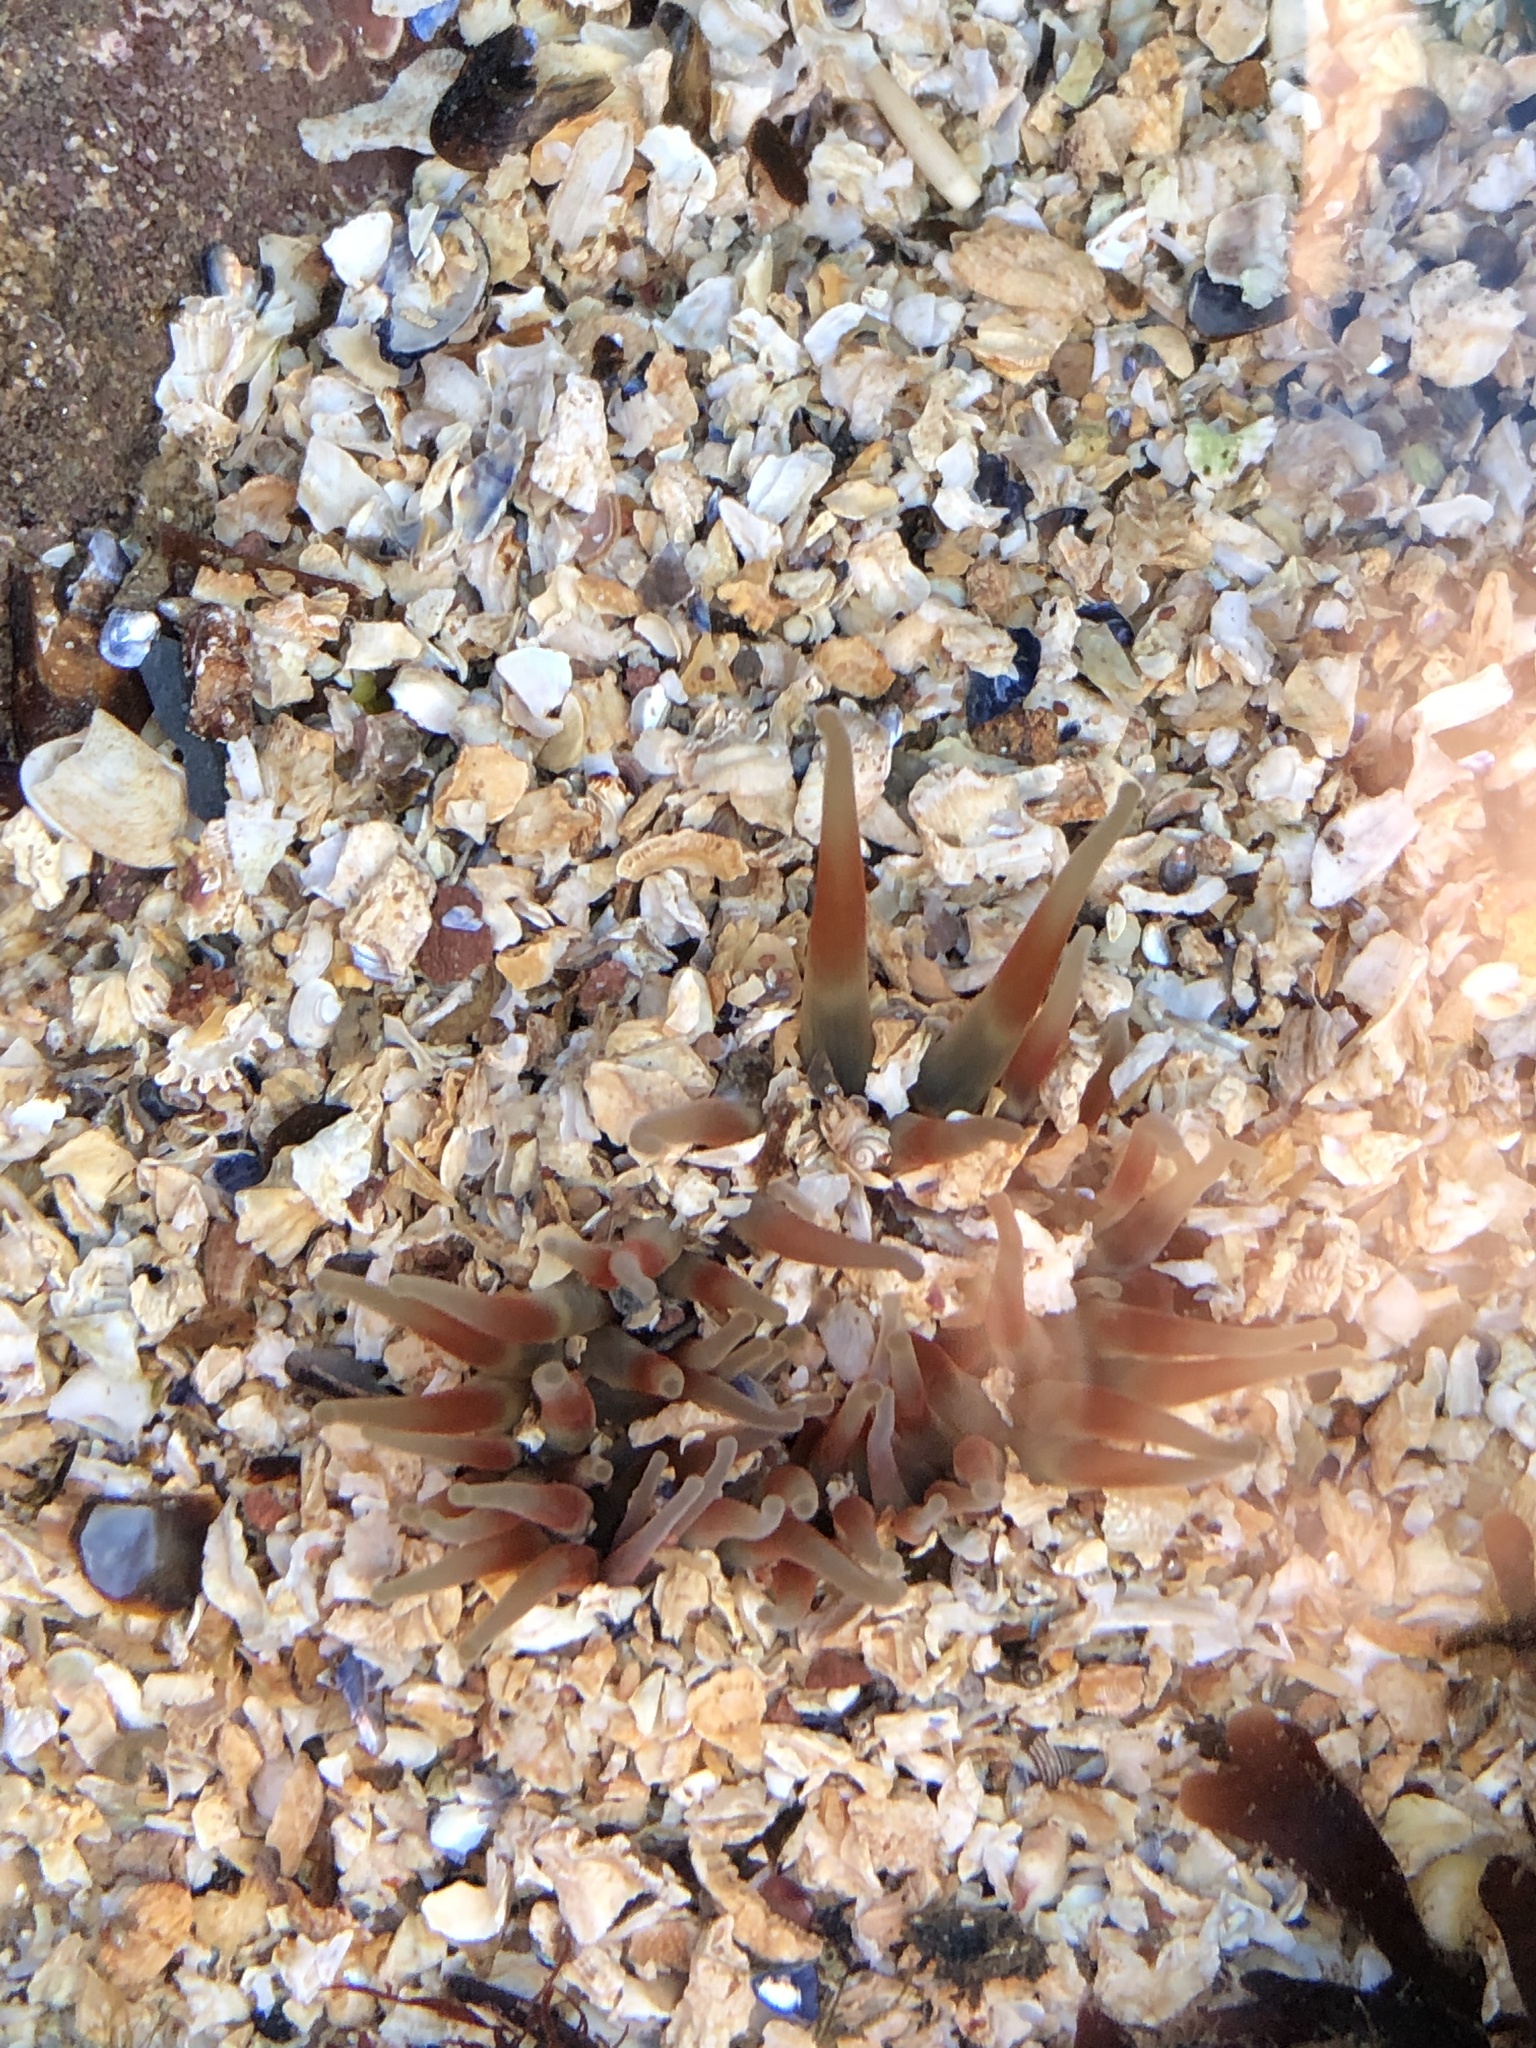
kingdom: Animalia
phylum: Cnidaria
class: Anthozoa
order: Actiniaria
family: Actiniidae
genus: Urticina
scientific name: Urticina felina
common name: Dahlia anemone
